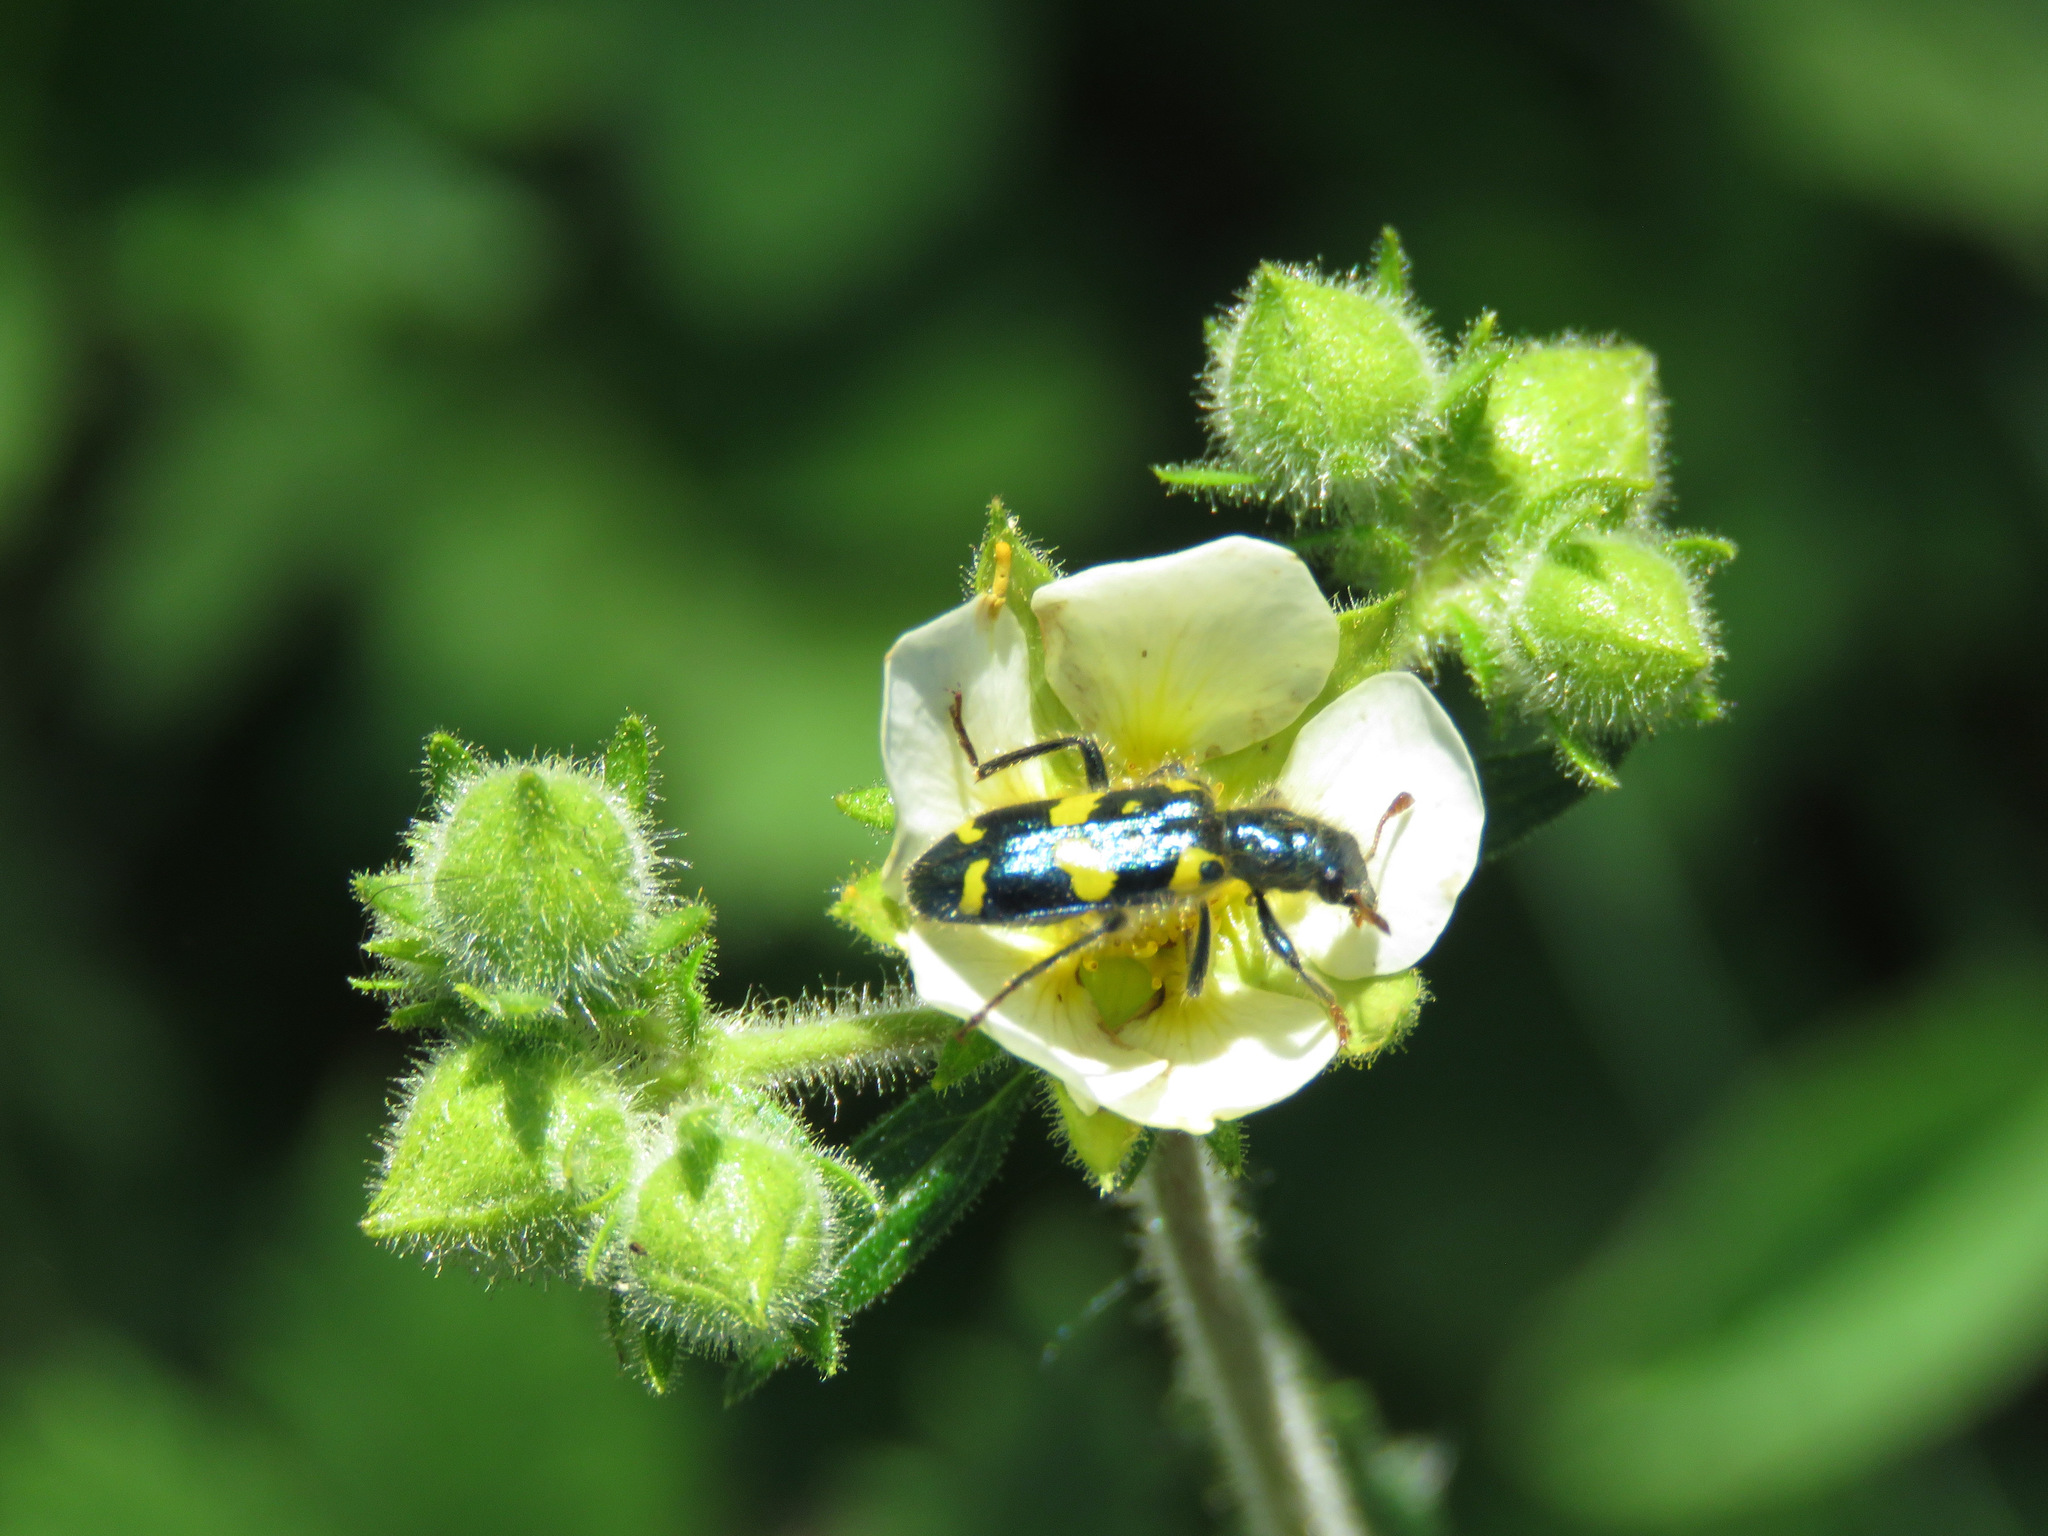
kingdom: Animalia
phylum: Arthropoda
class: Insecta
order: Coleoptera
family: Cleridae
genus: Trichodes
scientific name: Trichodes ornatus
